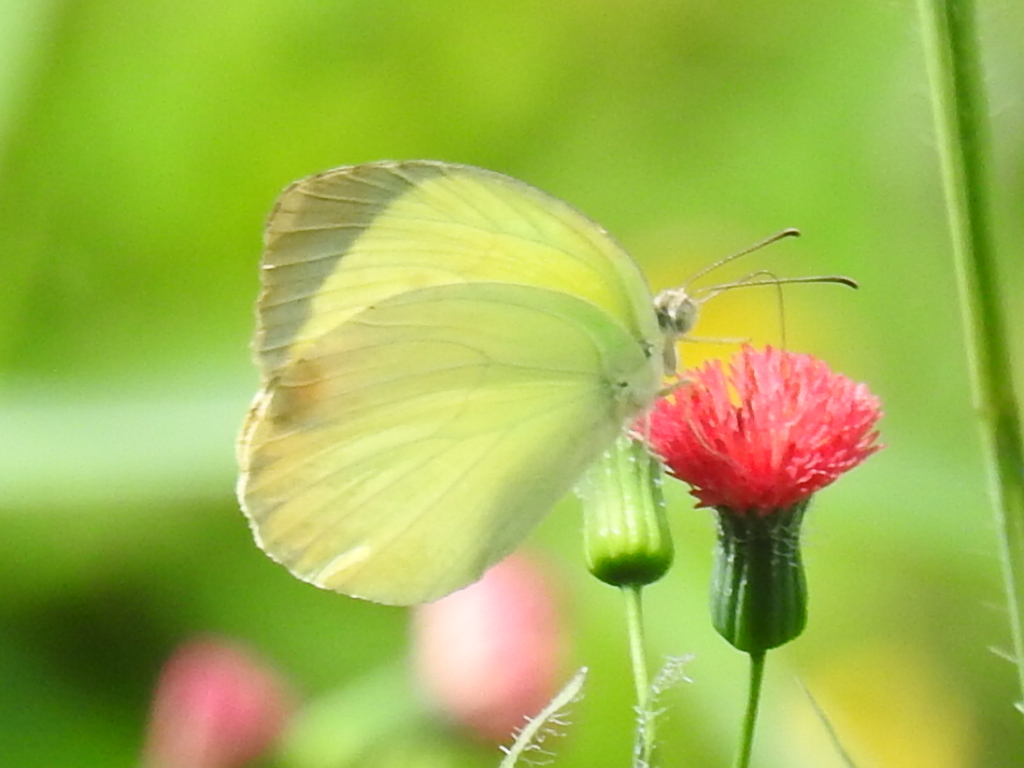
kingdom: Animalia
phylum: Arthropoda
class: Insecta
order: Lepidoptera
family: Pieridae
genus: Abaeis
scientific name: Abaeis albula
